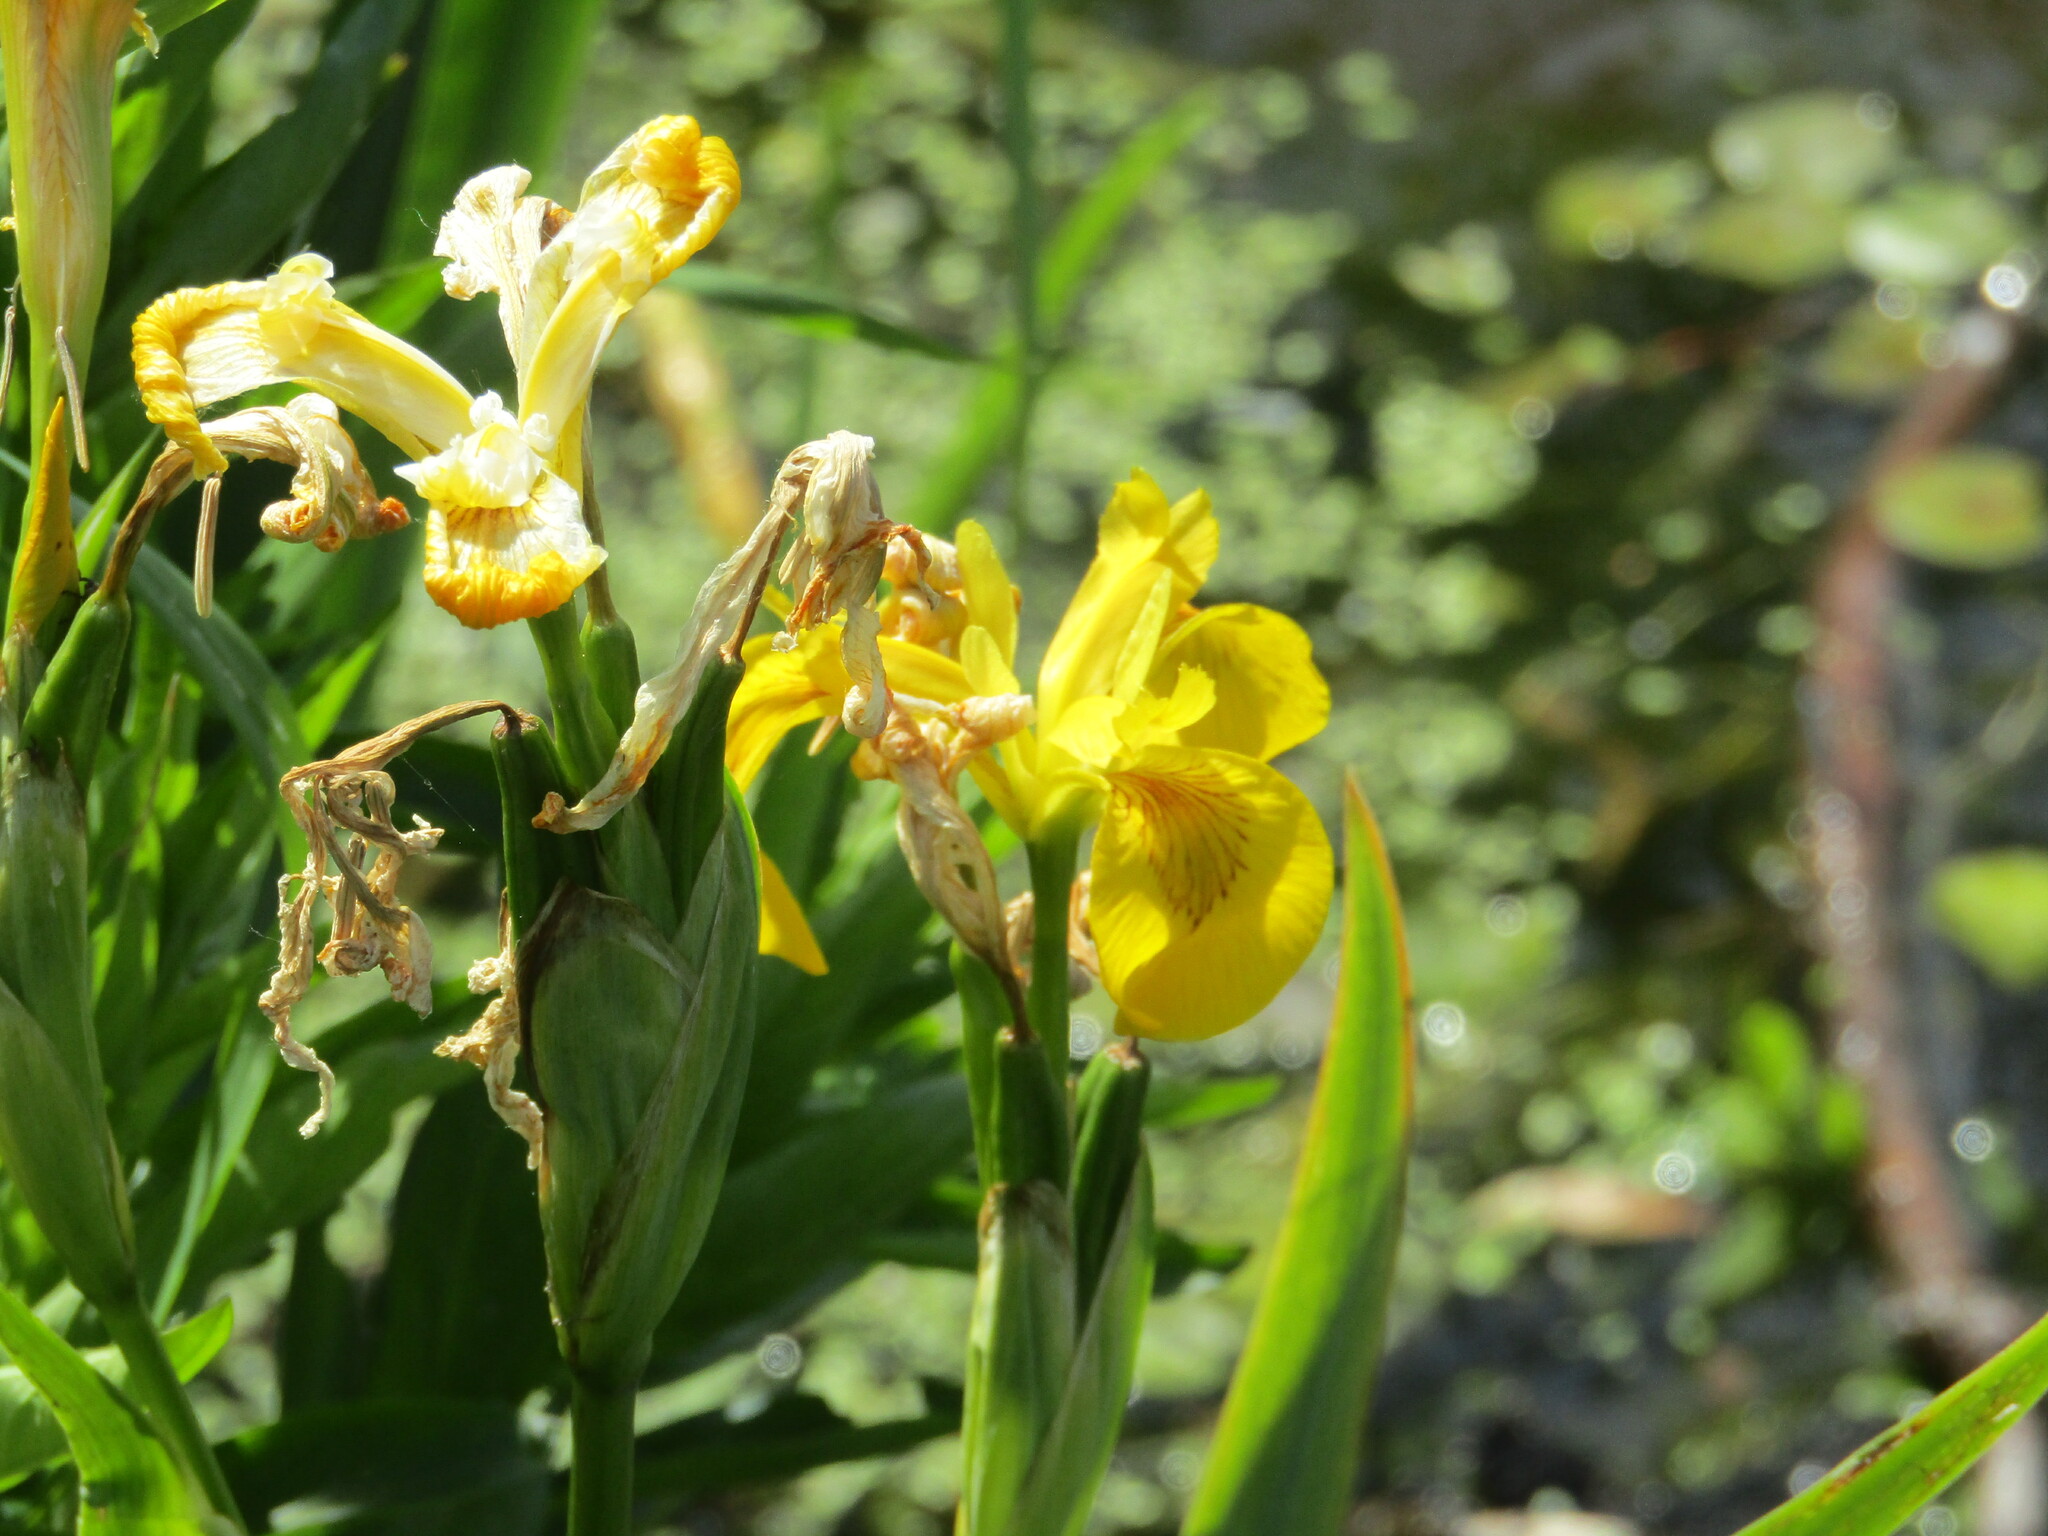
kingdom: Plantae
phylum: Tracheophyta
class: Liliopsida
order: Asparagales
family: Iridaceae
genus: Iris
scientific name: Iris pseudacorus
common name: Yellow flag
